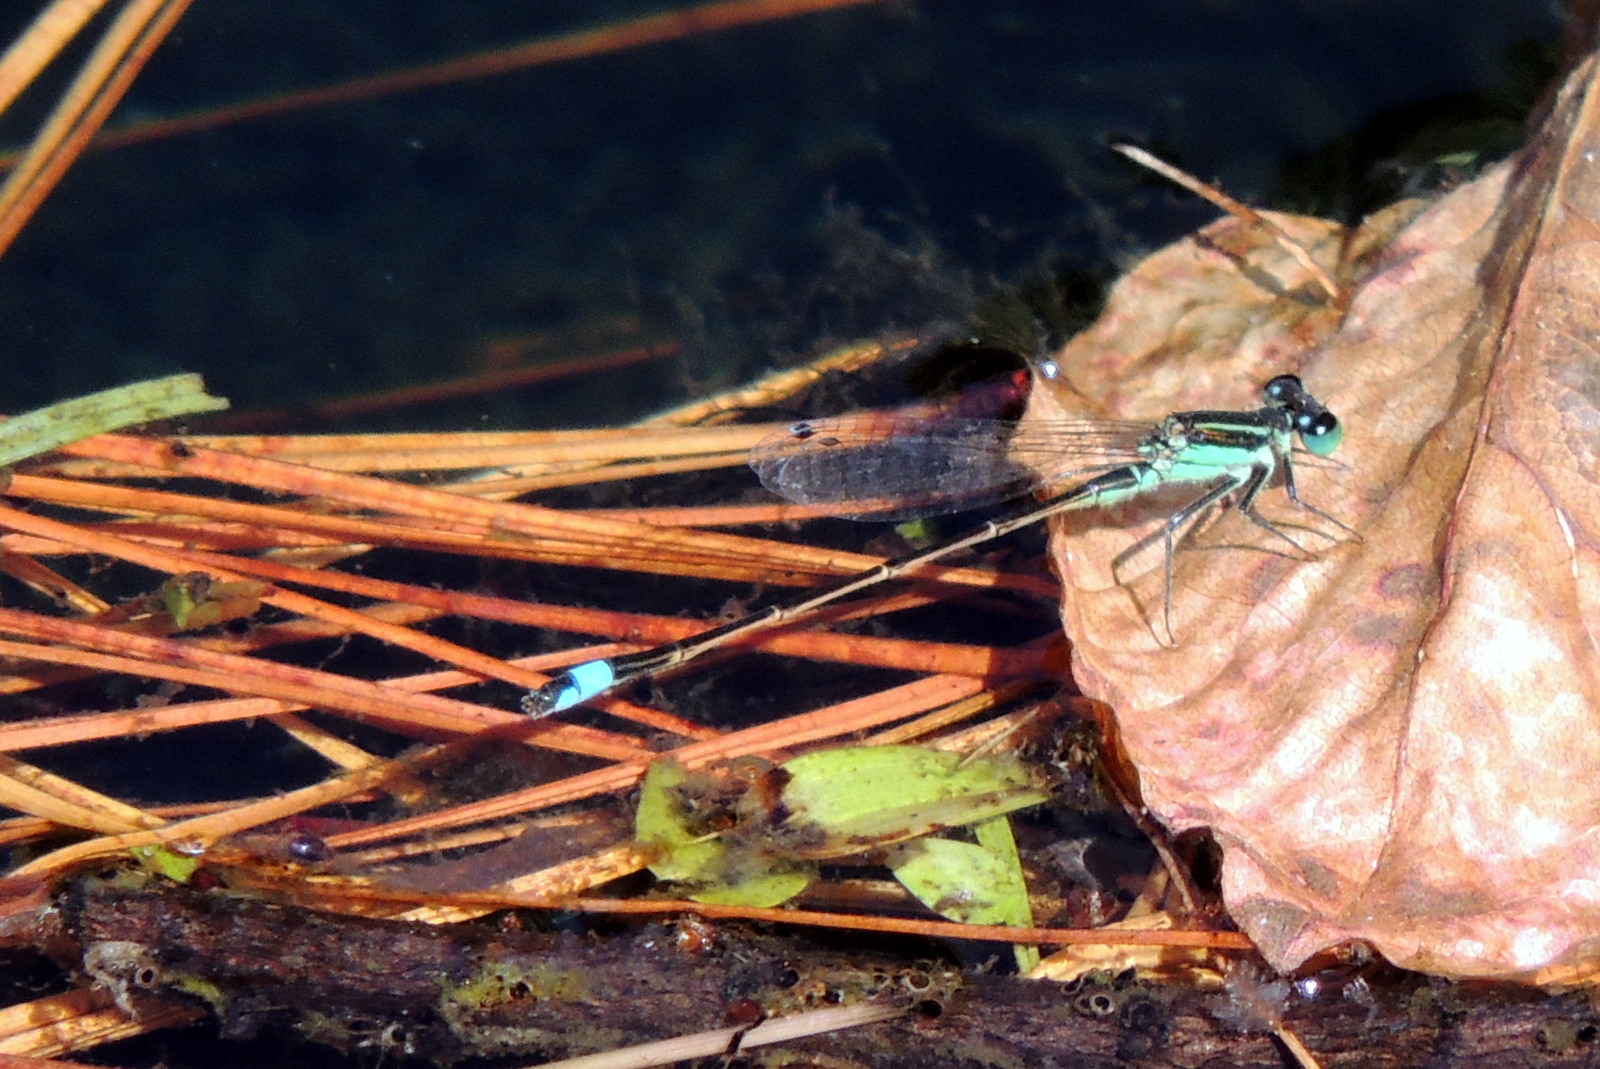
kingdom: Animalia
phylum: Arthropoda
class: Insecta
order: Odonata
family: Coenagrionidae
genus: Ischnura
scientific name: Ischnura ramburii
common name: Rambur's forktail
